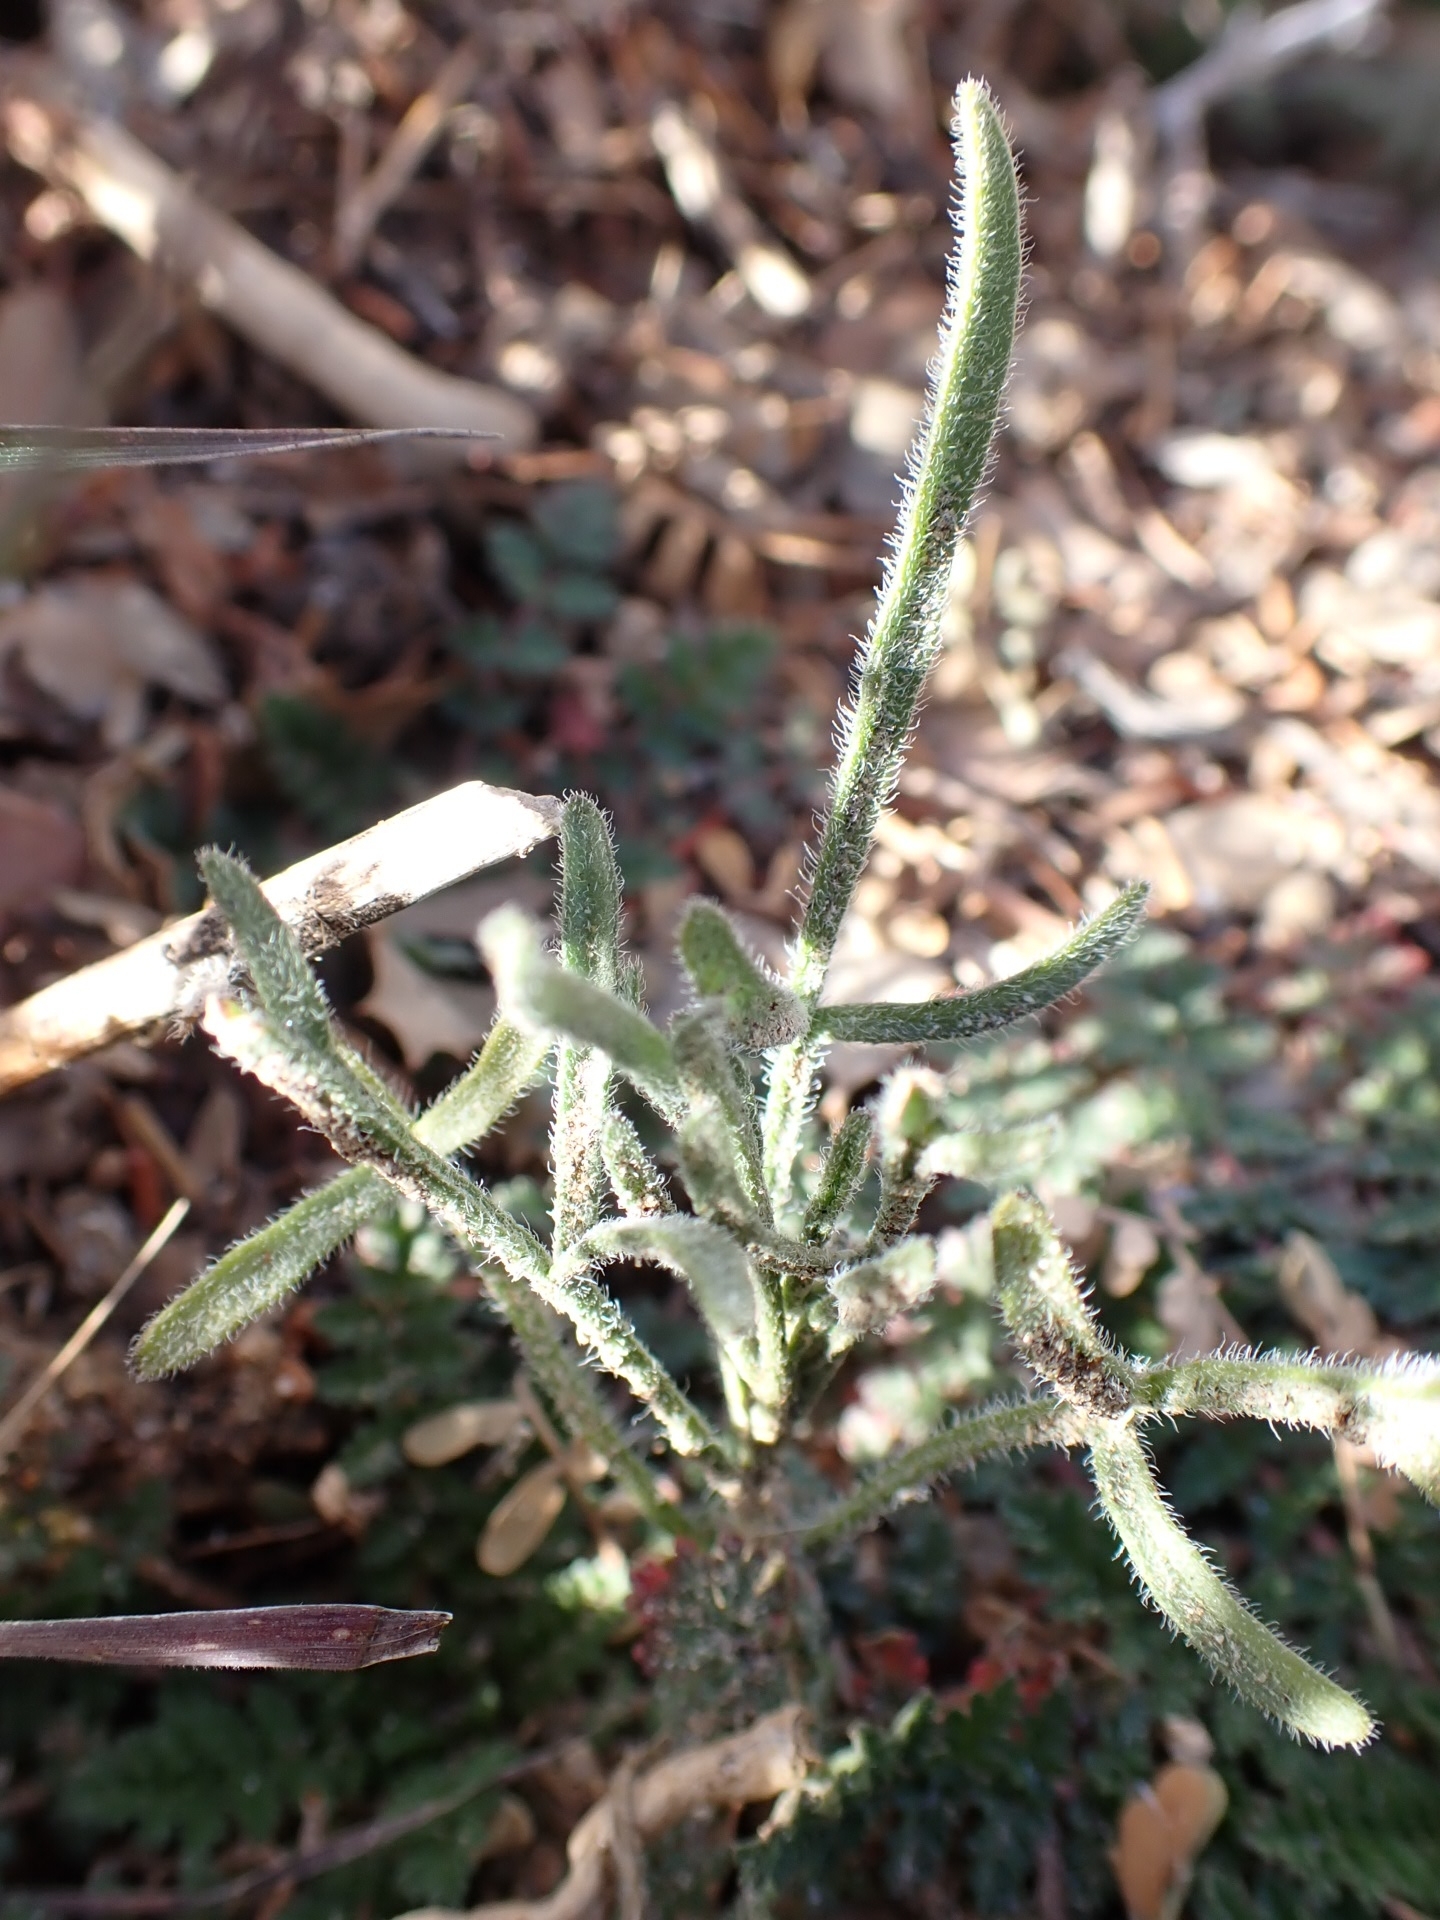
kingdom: Plantae
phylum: Tracheophyta
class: Magnoliopsida
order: Asterales
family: Asteraceae
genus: Bebbia
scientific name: Bebbia juncea
